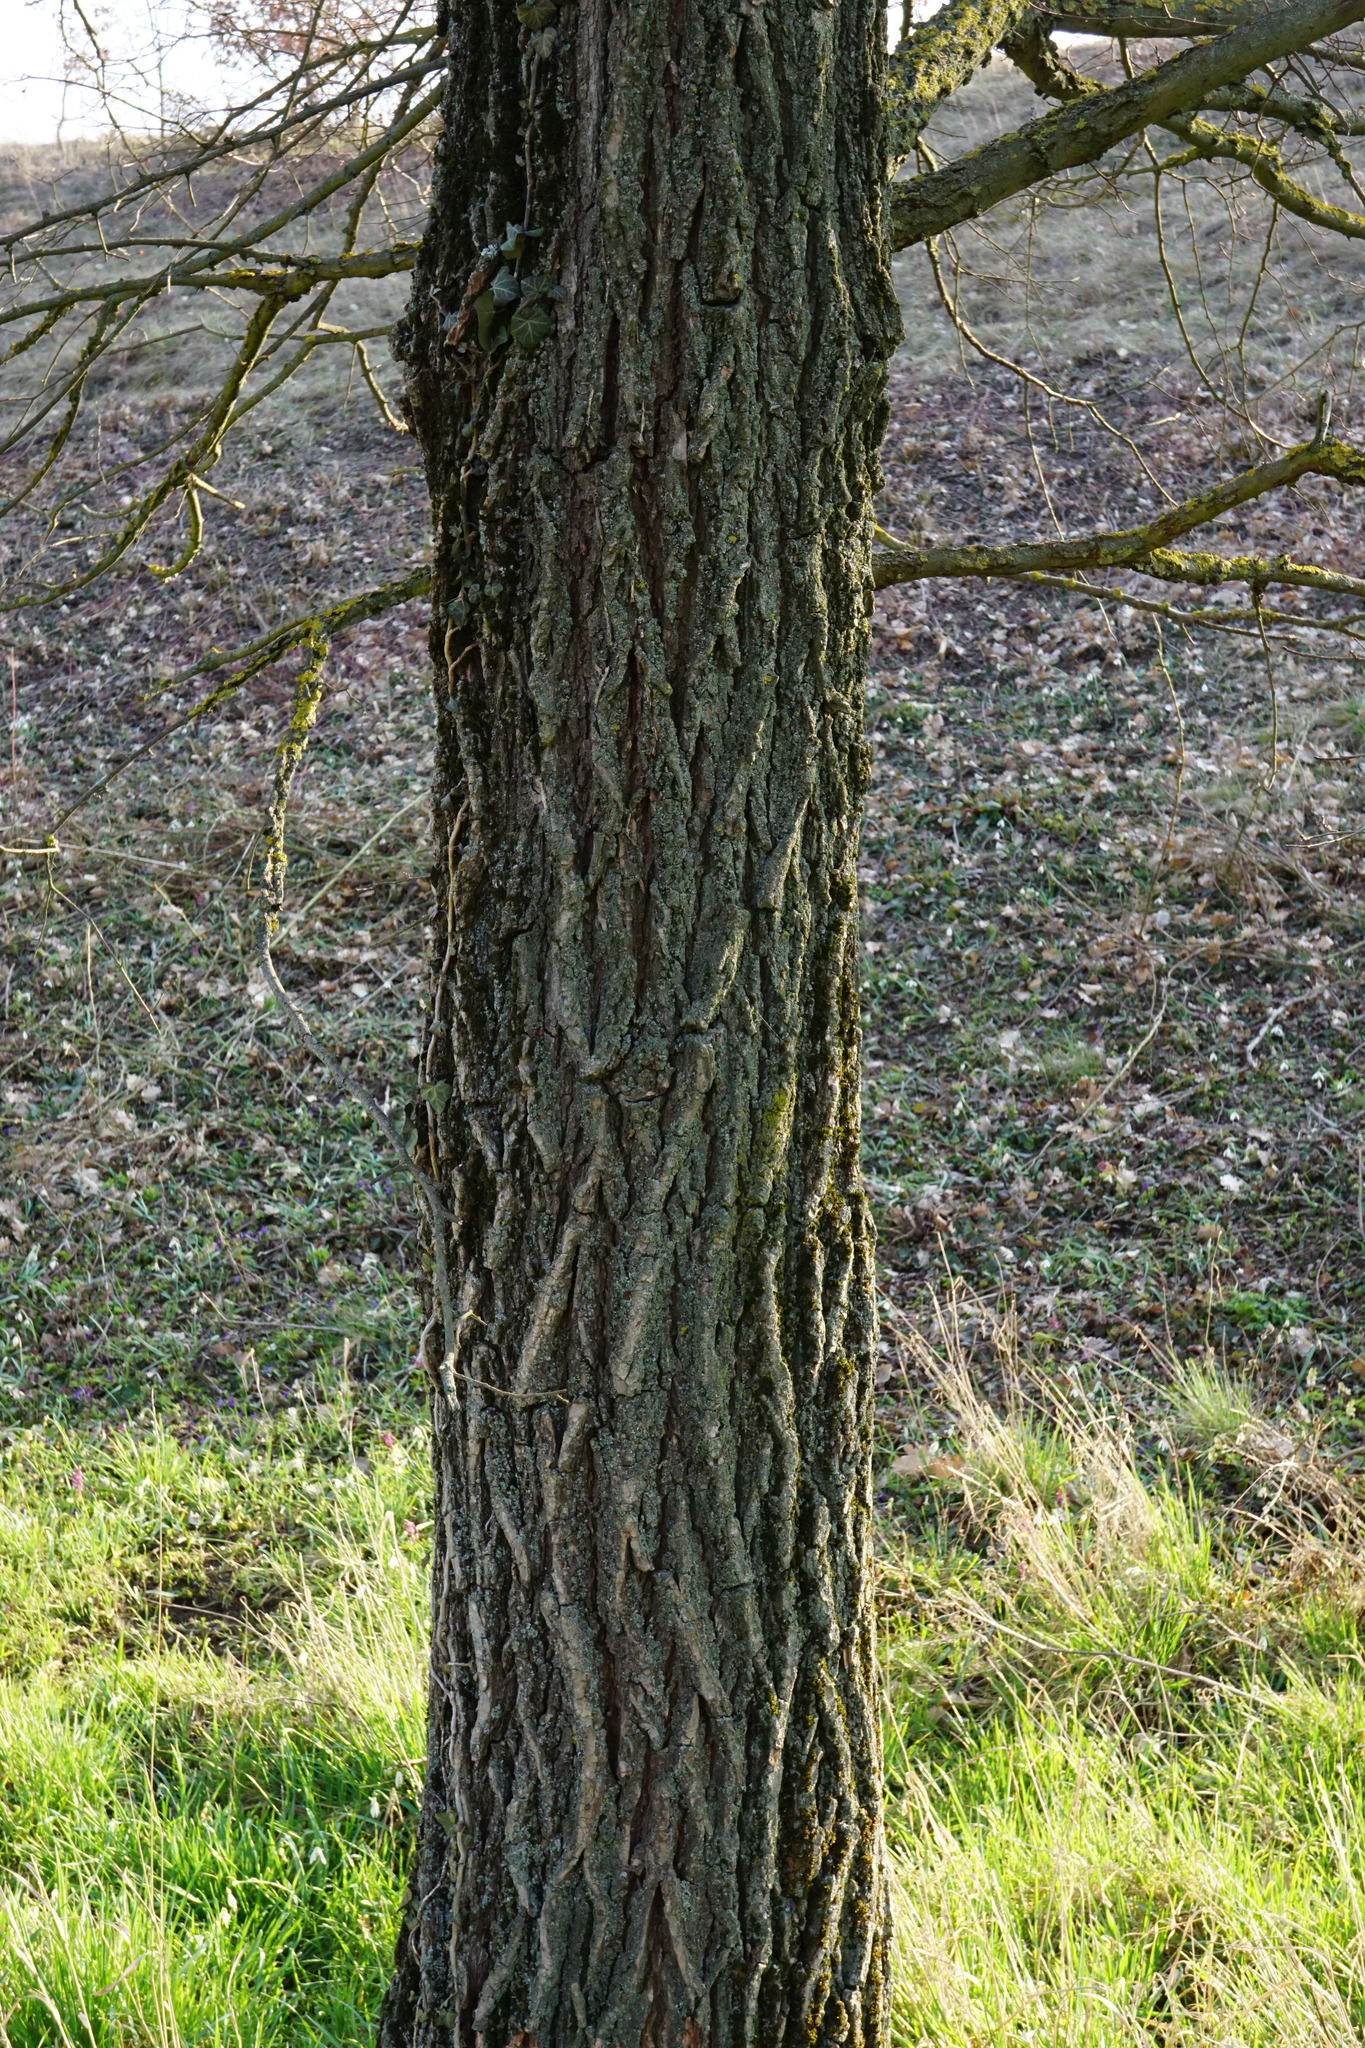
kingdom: Plantae
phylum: Tracheophyta
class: Magnoliopsida
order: Rosales
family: Ulmaceae
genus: Ulmus
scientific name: Ulmus minor
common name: Small-leaved elm
